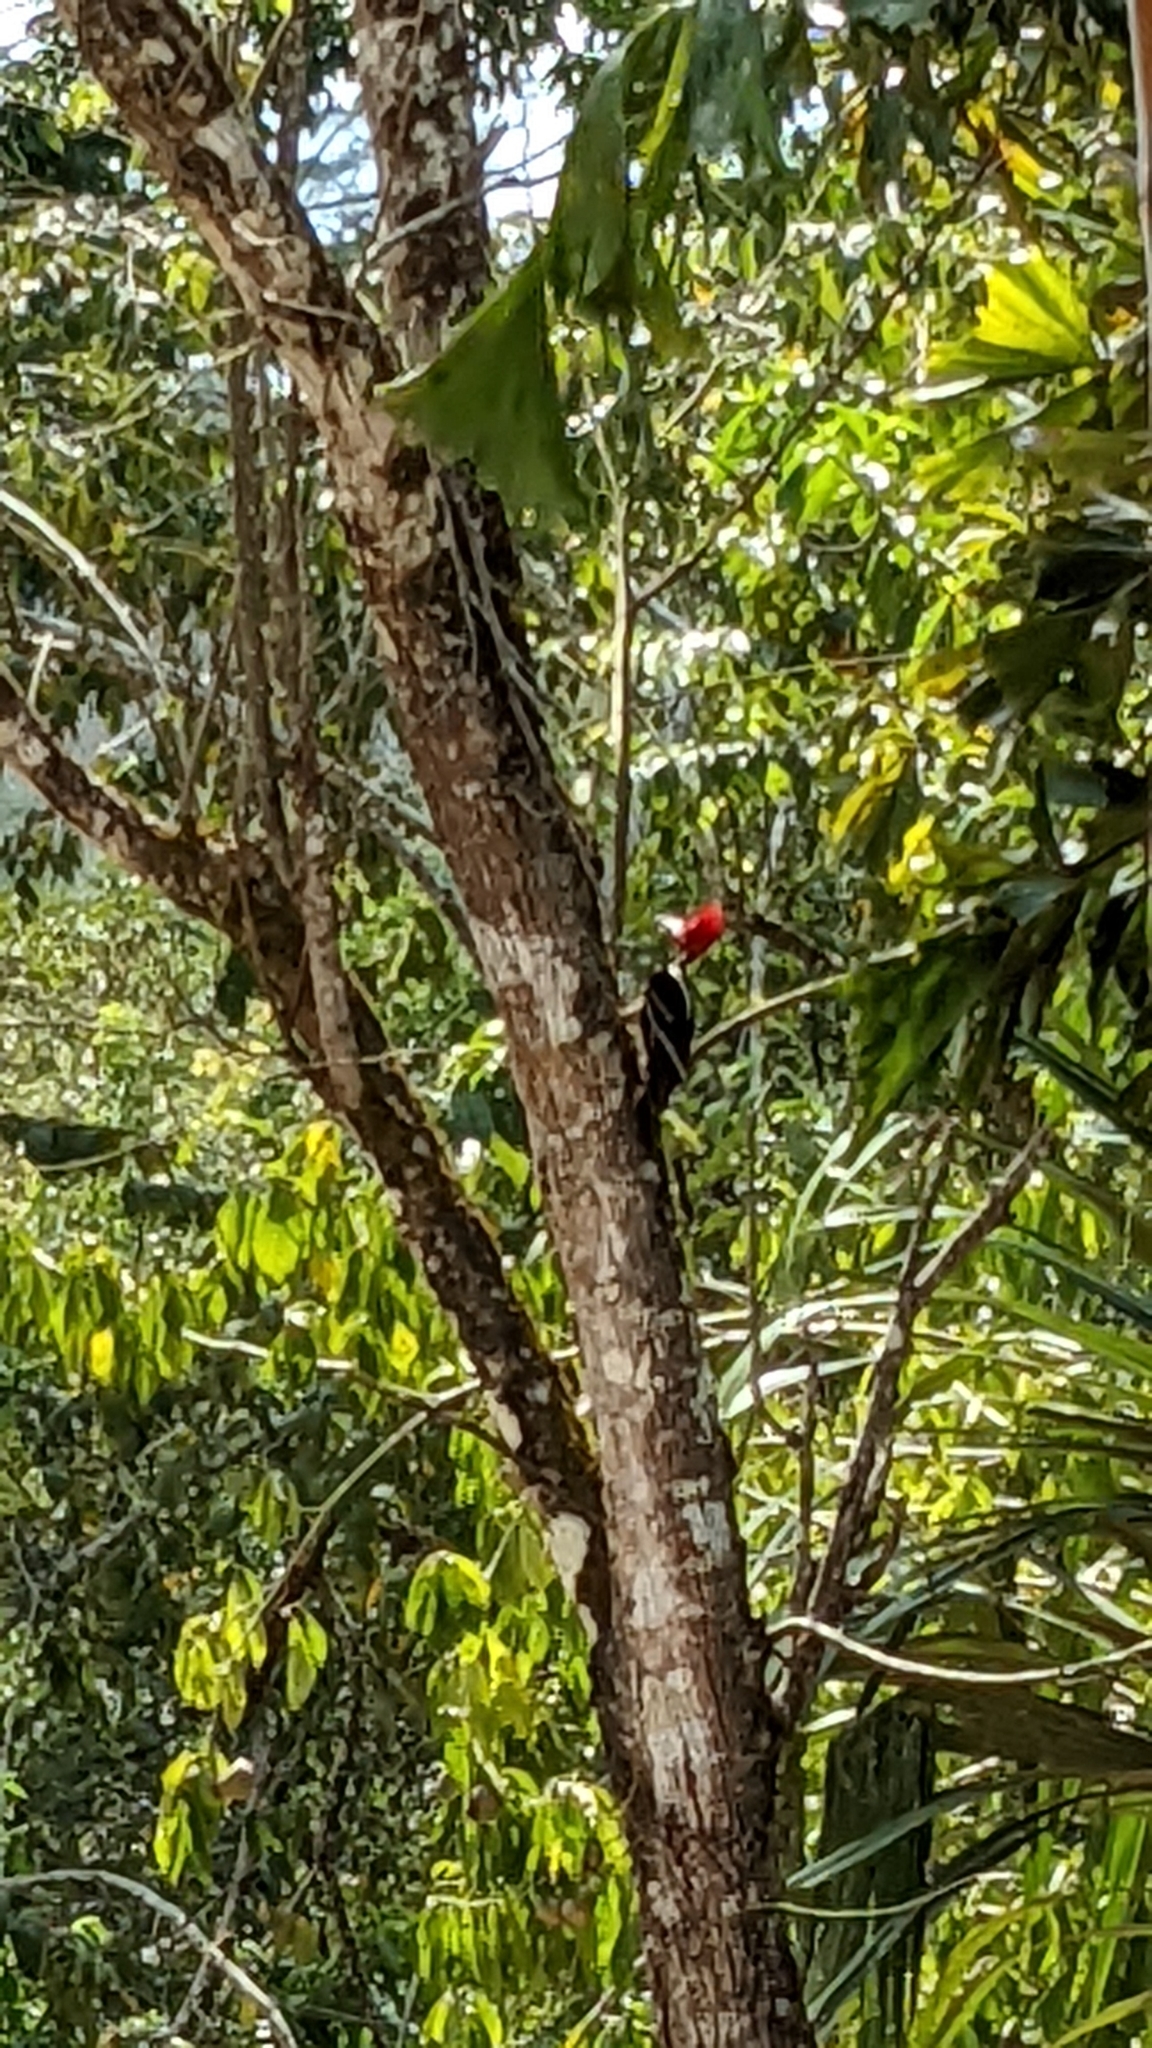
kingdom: Animalia
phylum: Chordata
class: Aves
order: Piciformes
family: Picidae
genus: Dryocopus
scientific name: Dryocopus lineatus
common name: Lineated woodpecker
